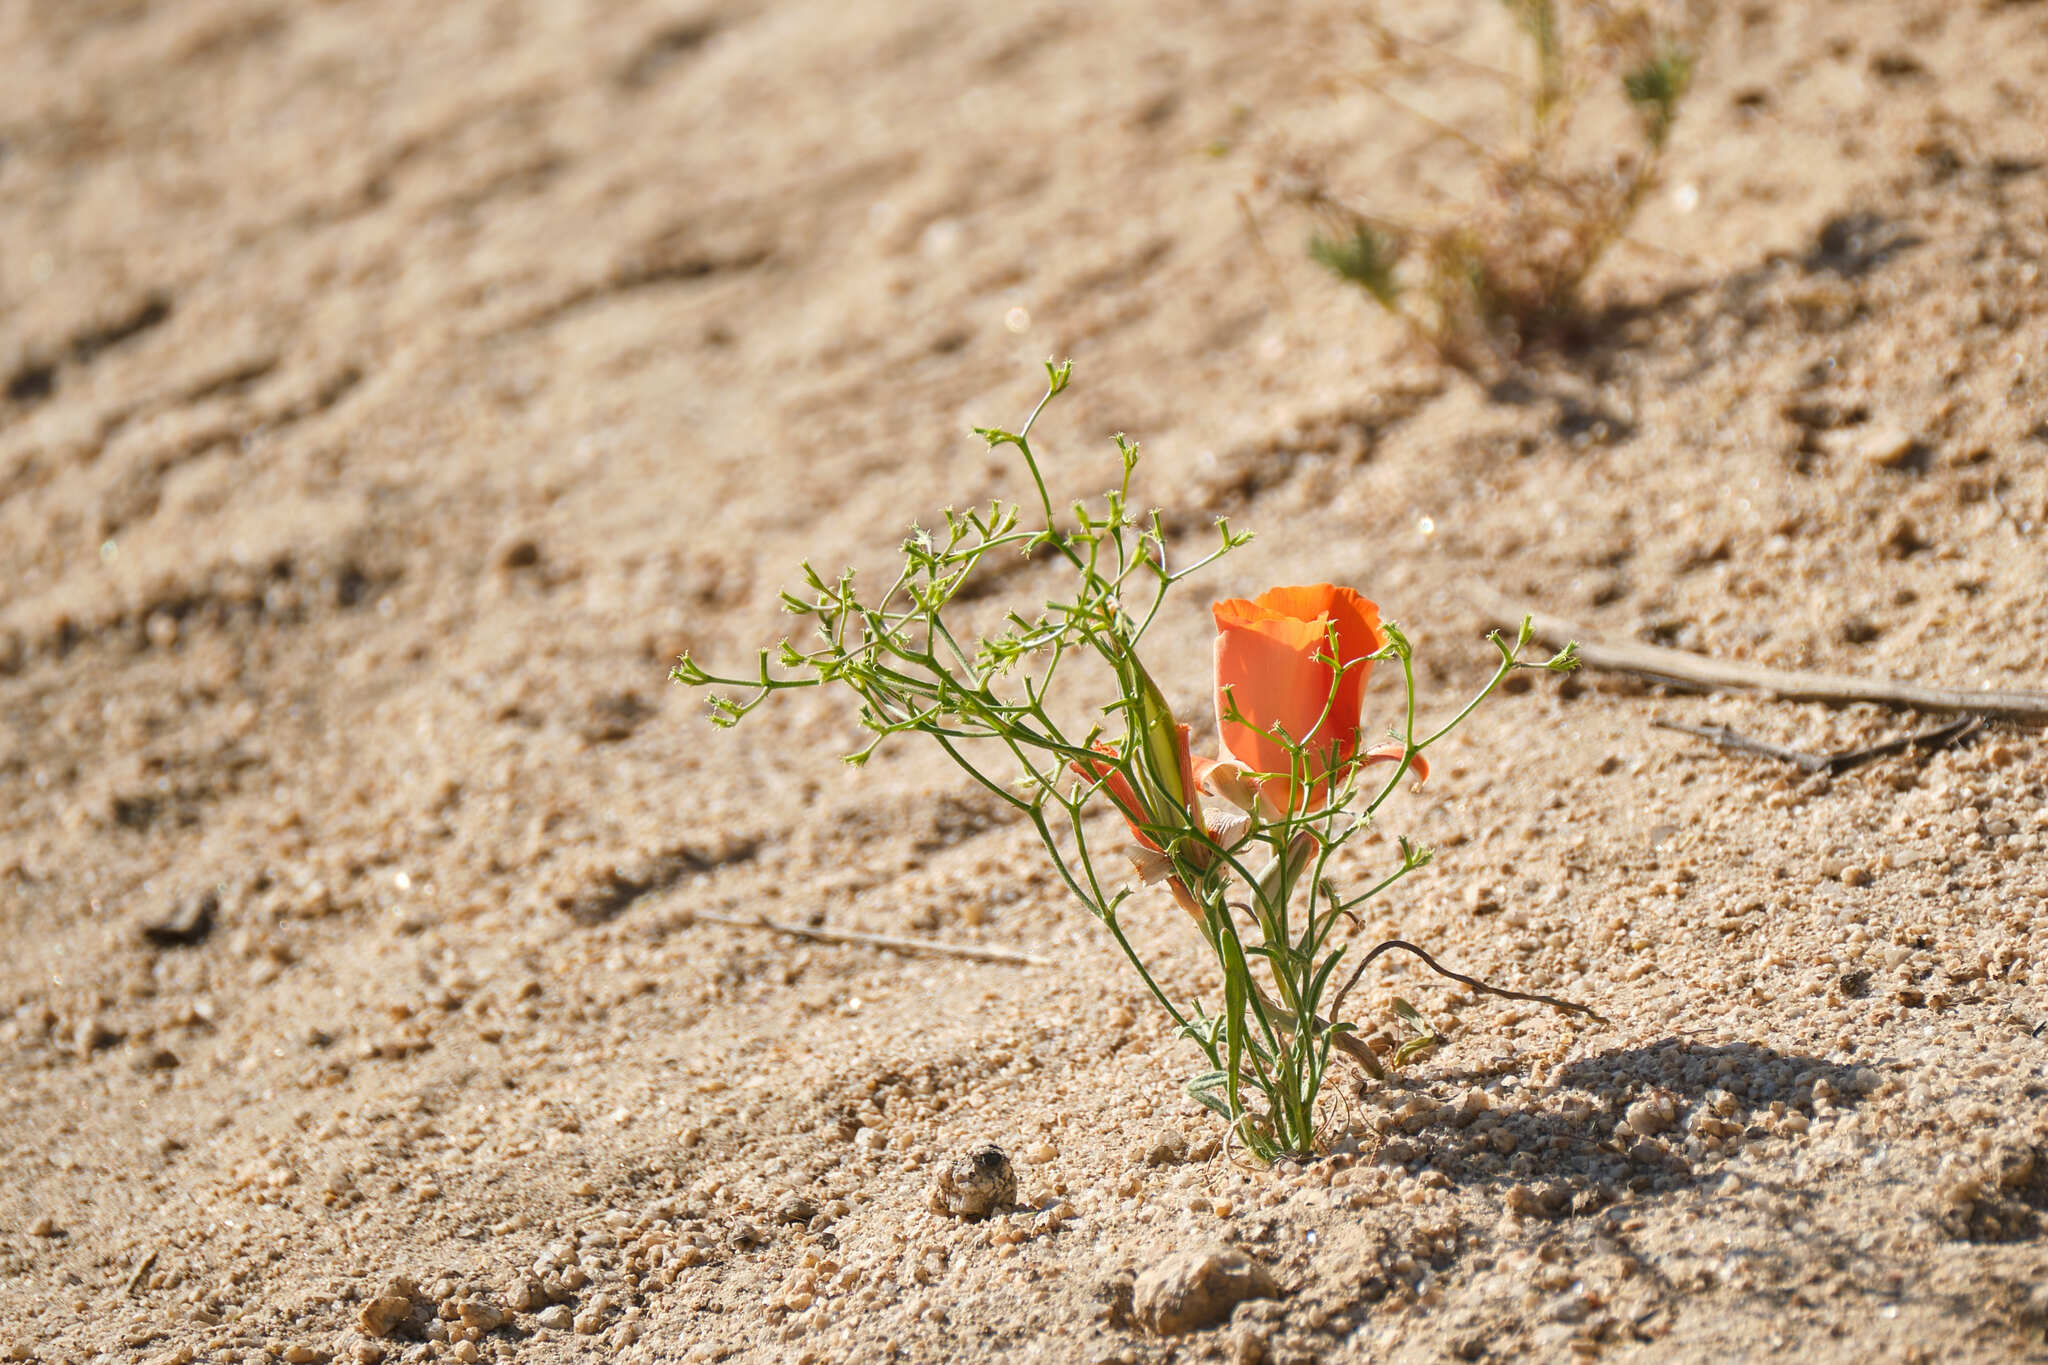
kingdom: Plantae
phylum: Tracheophyta
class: Liliopsida
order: Liliales
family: Liliaceae
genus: Calochortus
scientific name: Calochortus kennedyi
